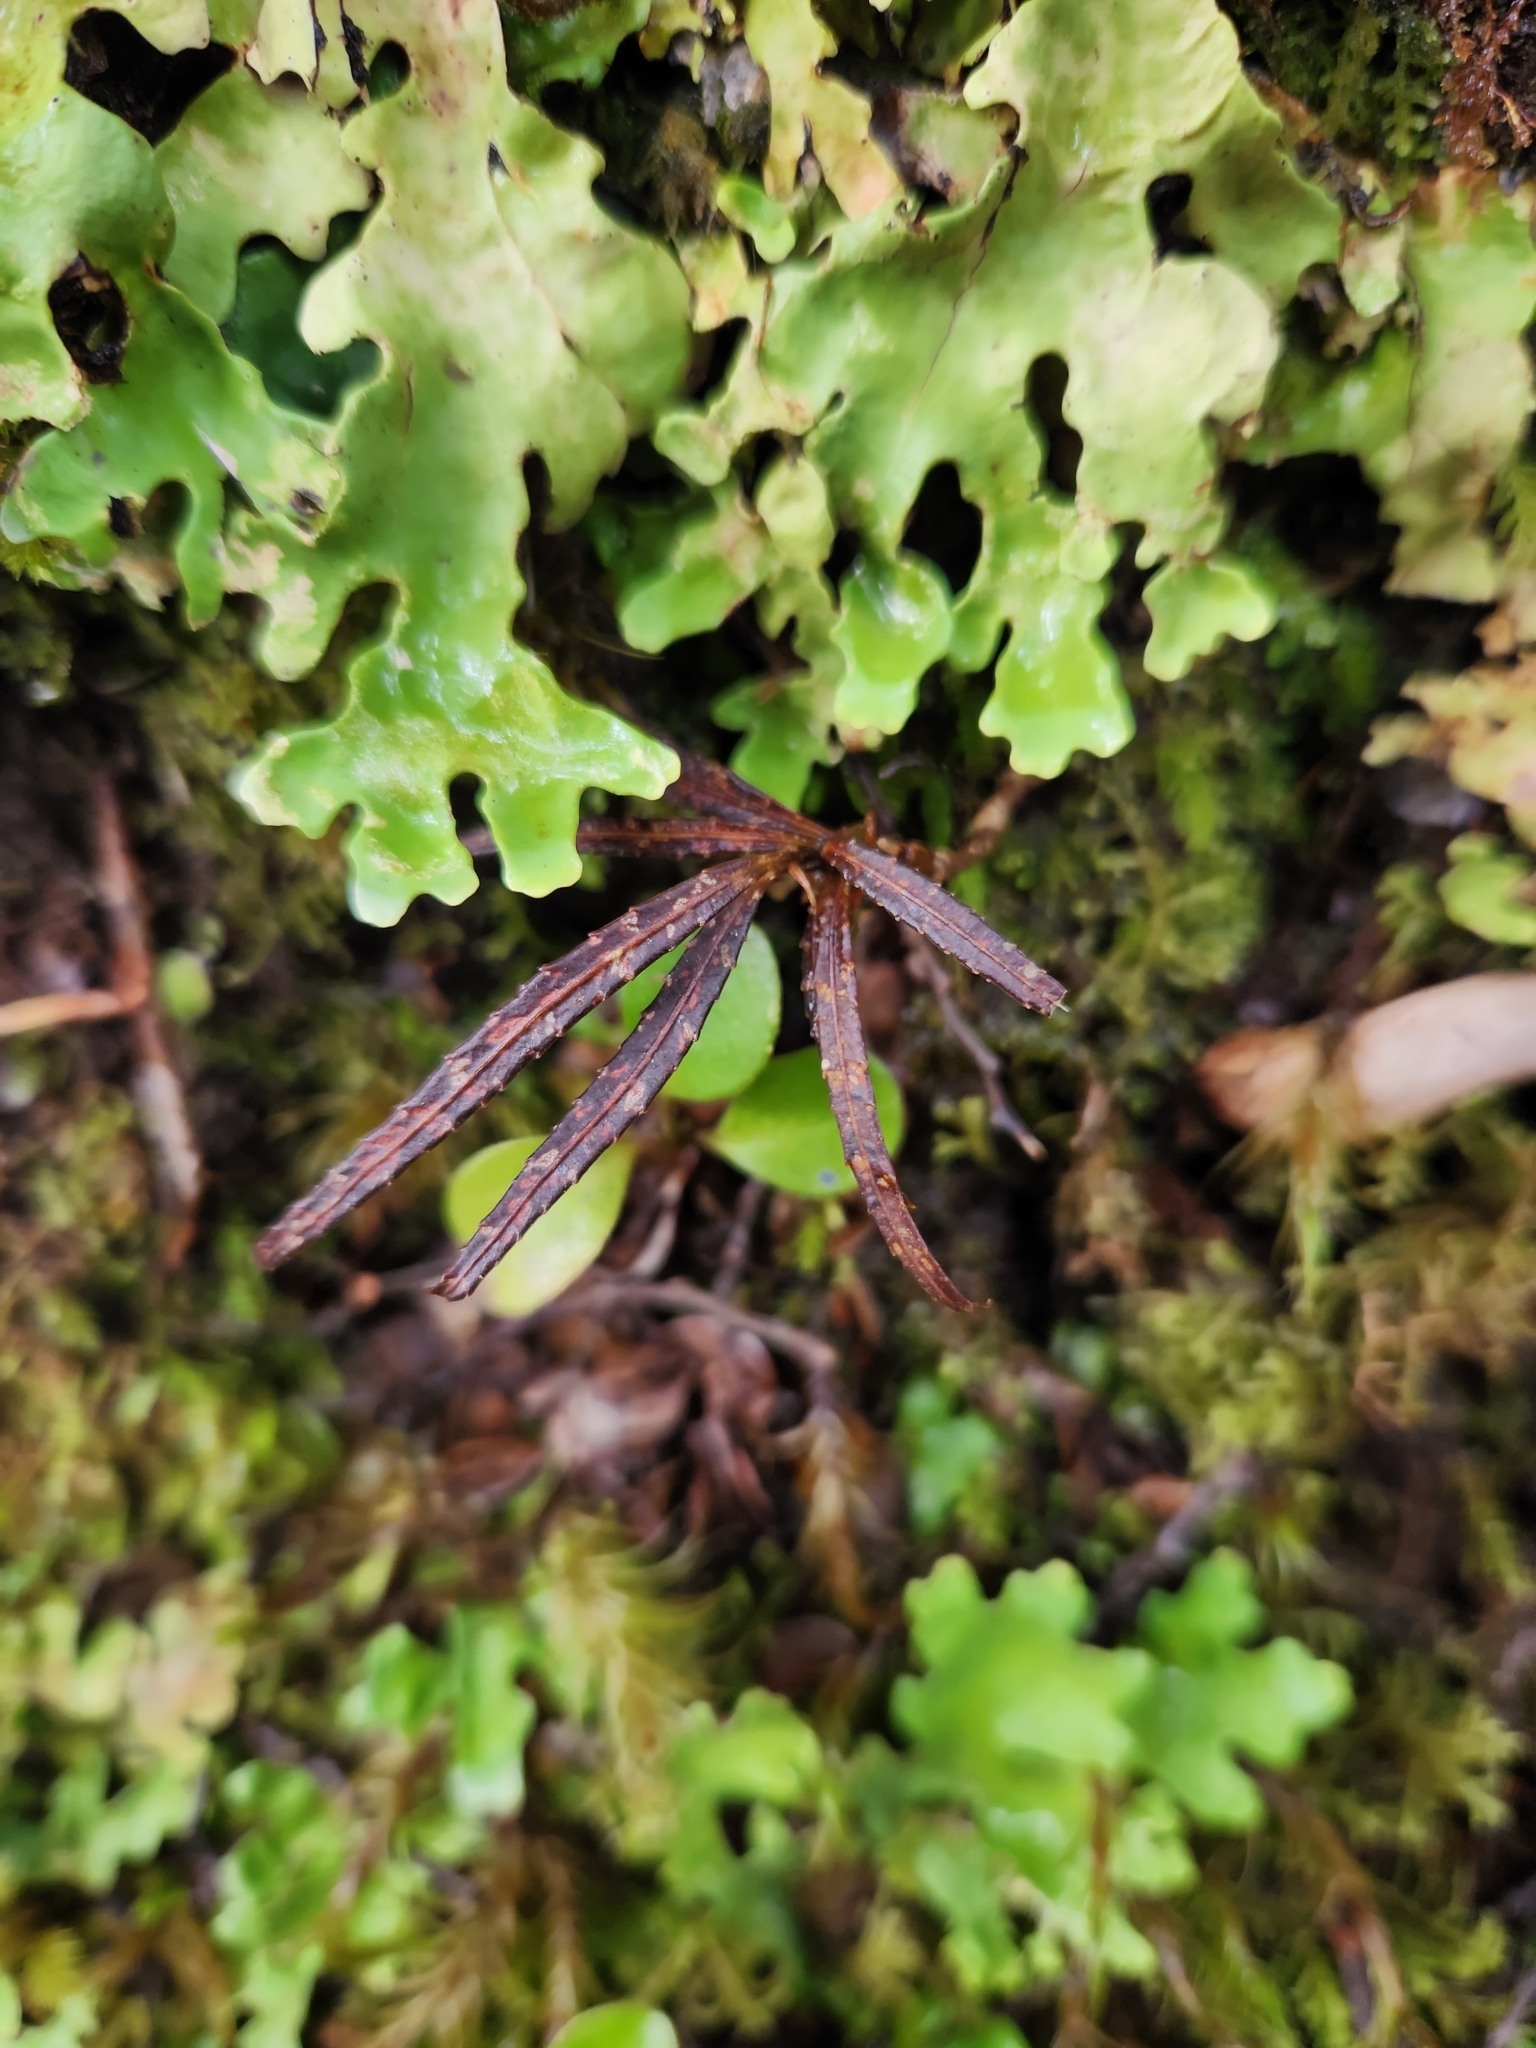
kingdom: Plantae
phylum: Tracheophyta
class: Magnoliopsida
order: Apiales
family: Araliaceae
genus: Pseudopanax
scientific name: Pseudopanax crassifolius
